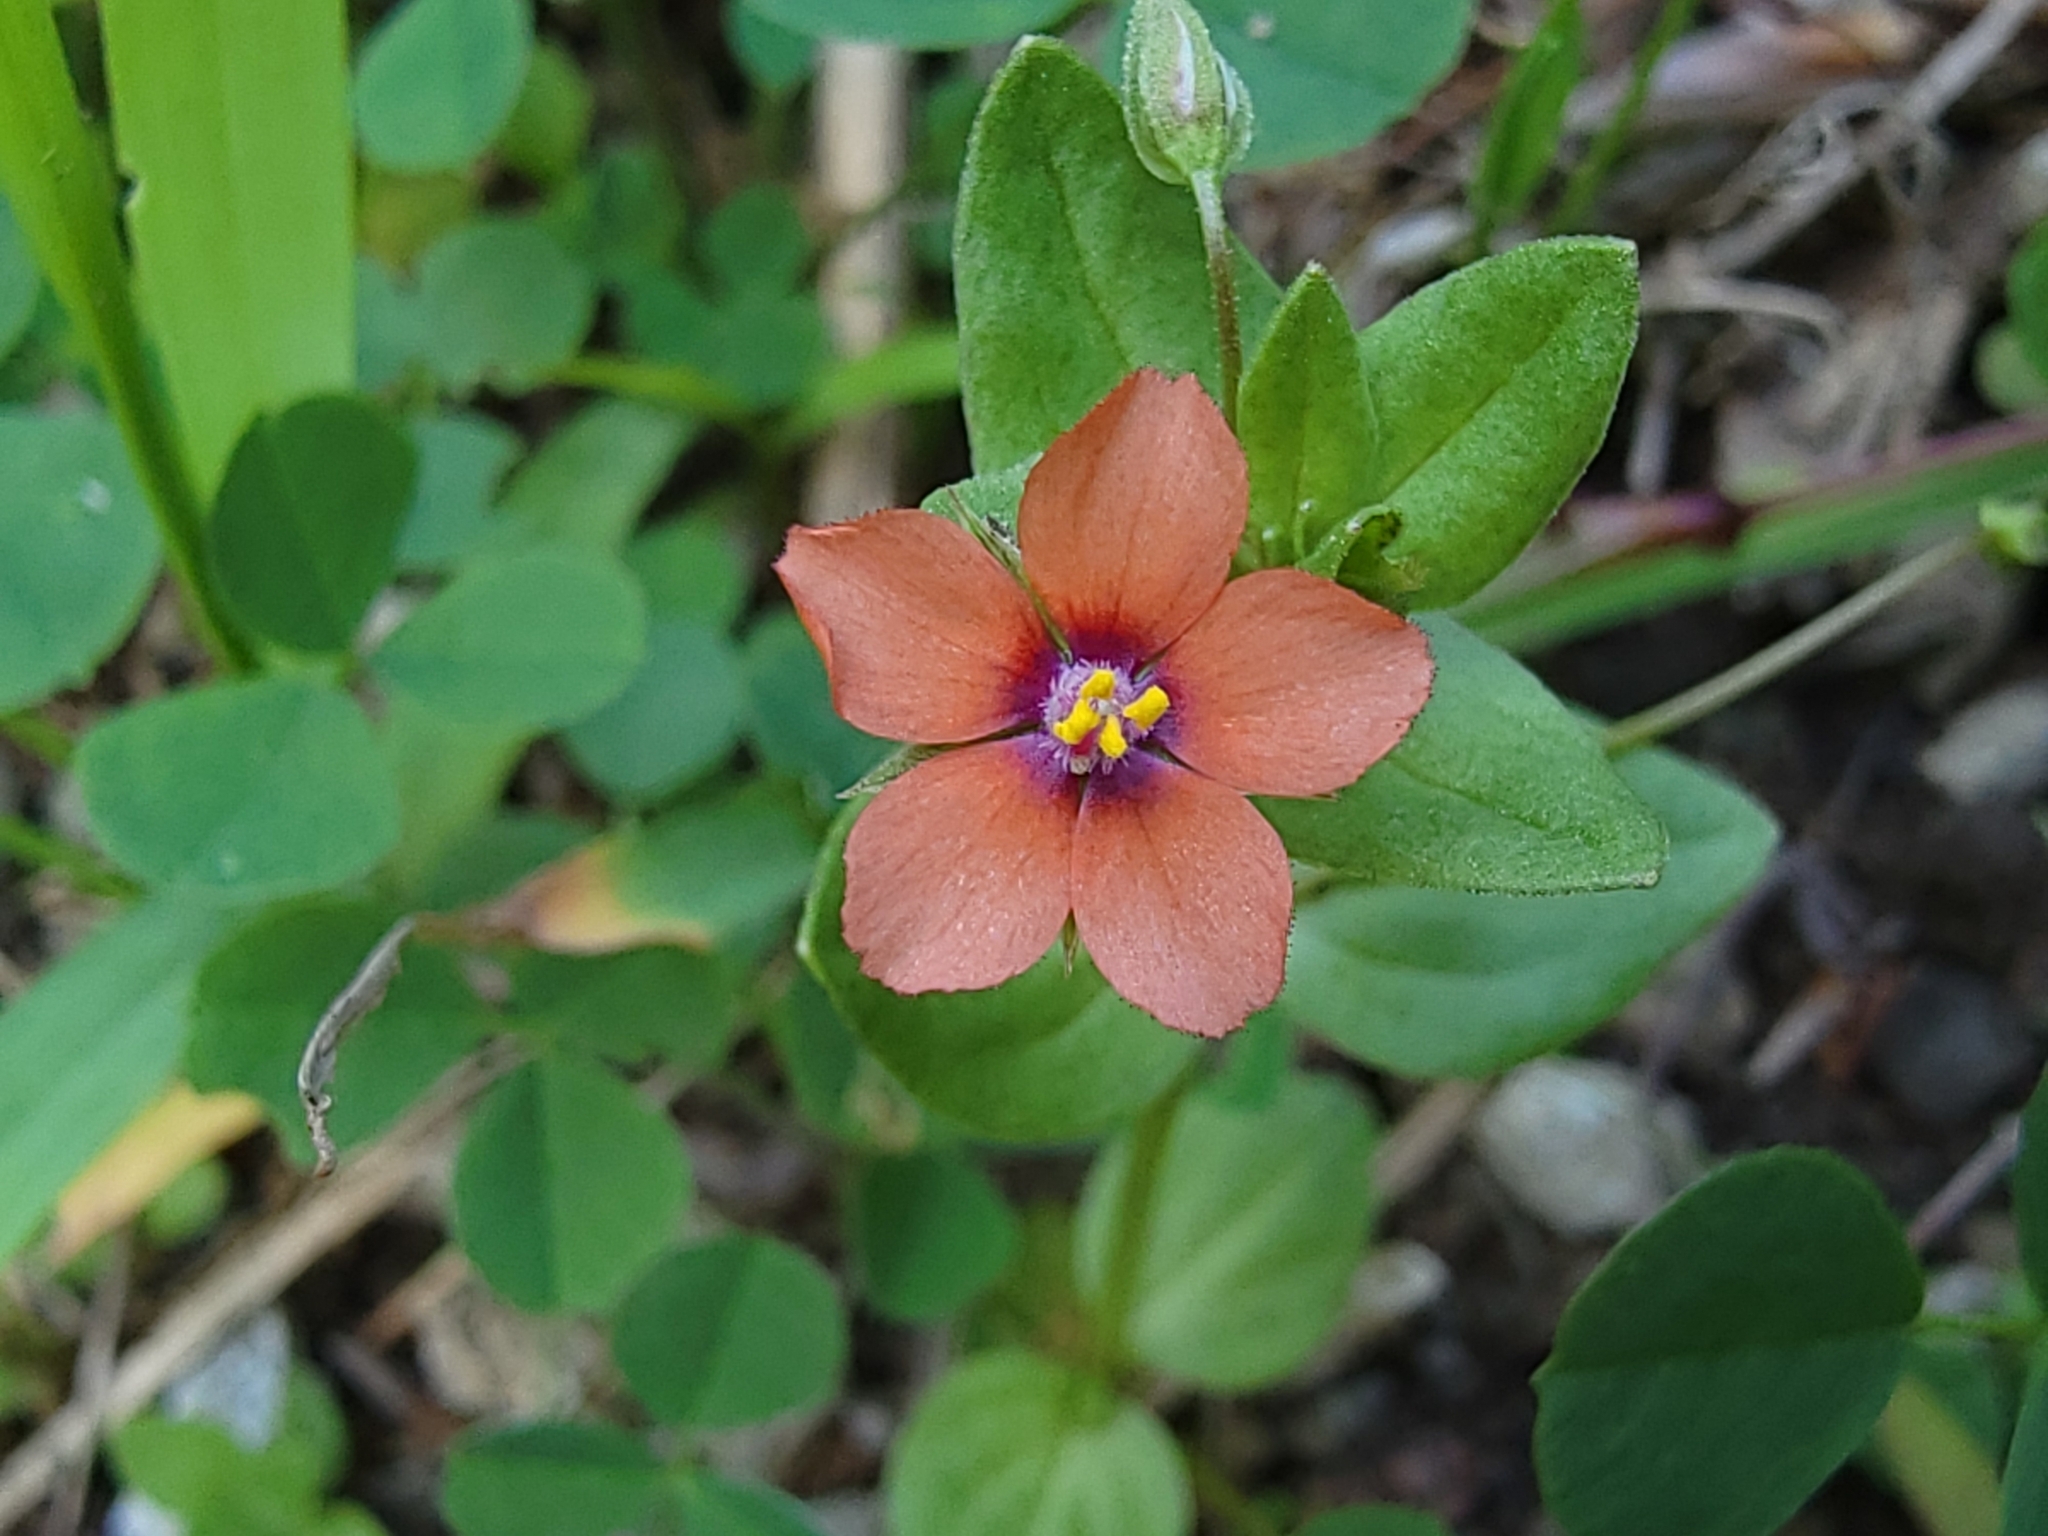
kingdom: Plantae
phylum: Tracheophyta
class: Magnoliopsida
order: Ericales
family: Primulaceae
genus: Lysimachia
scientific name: Lysimachia arvensis
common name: Scarlet pimpernel
